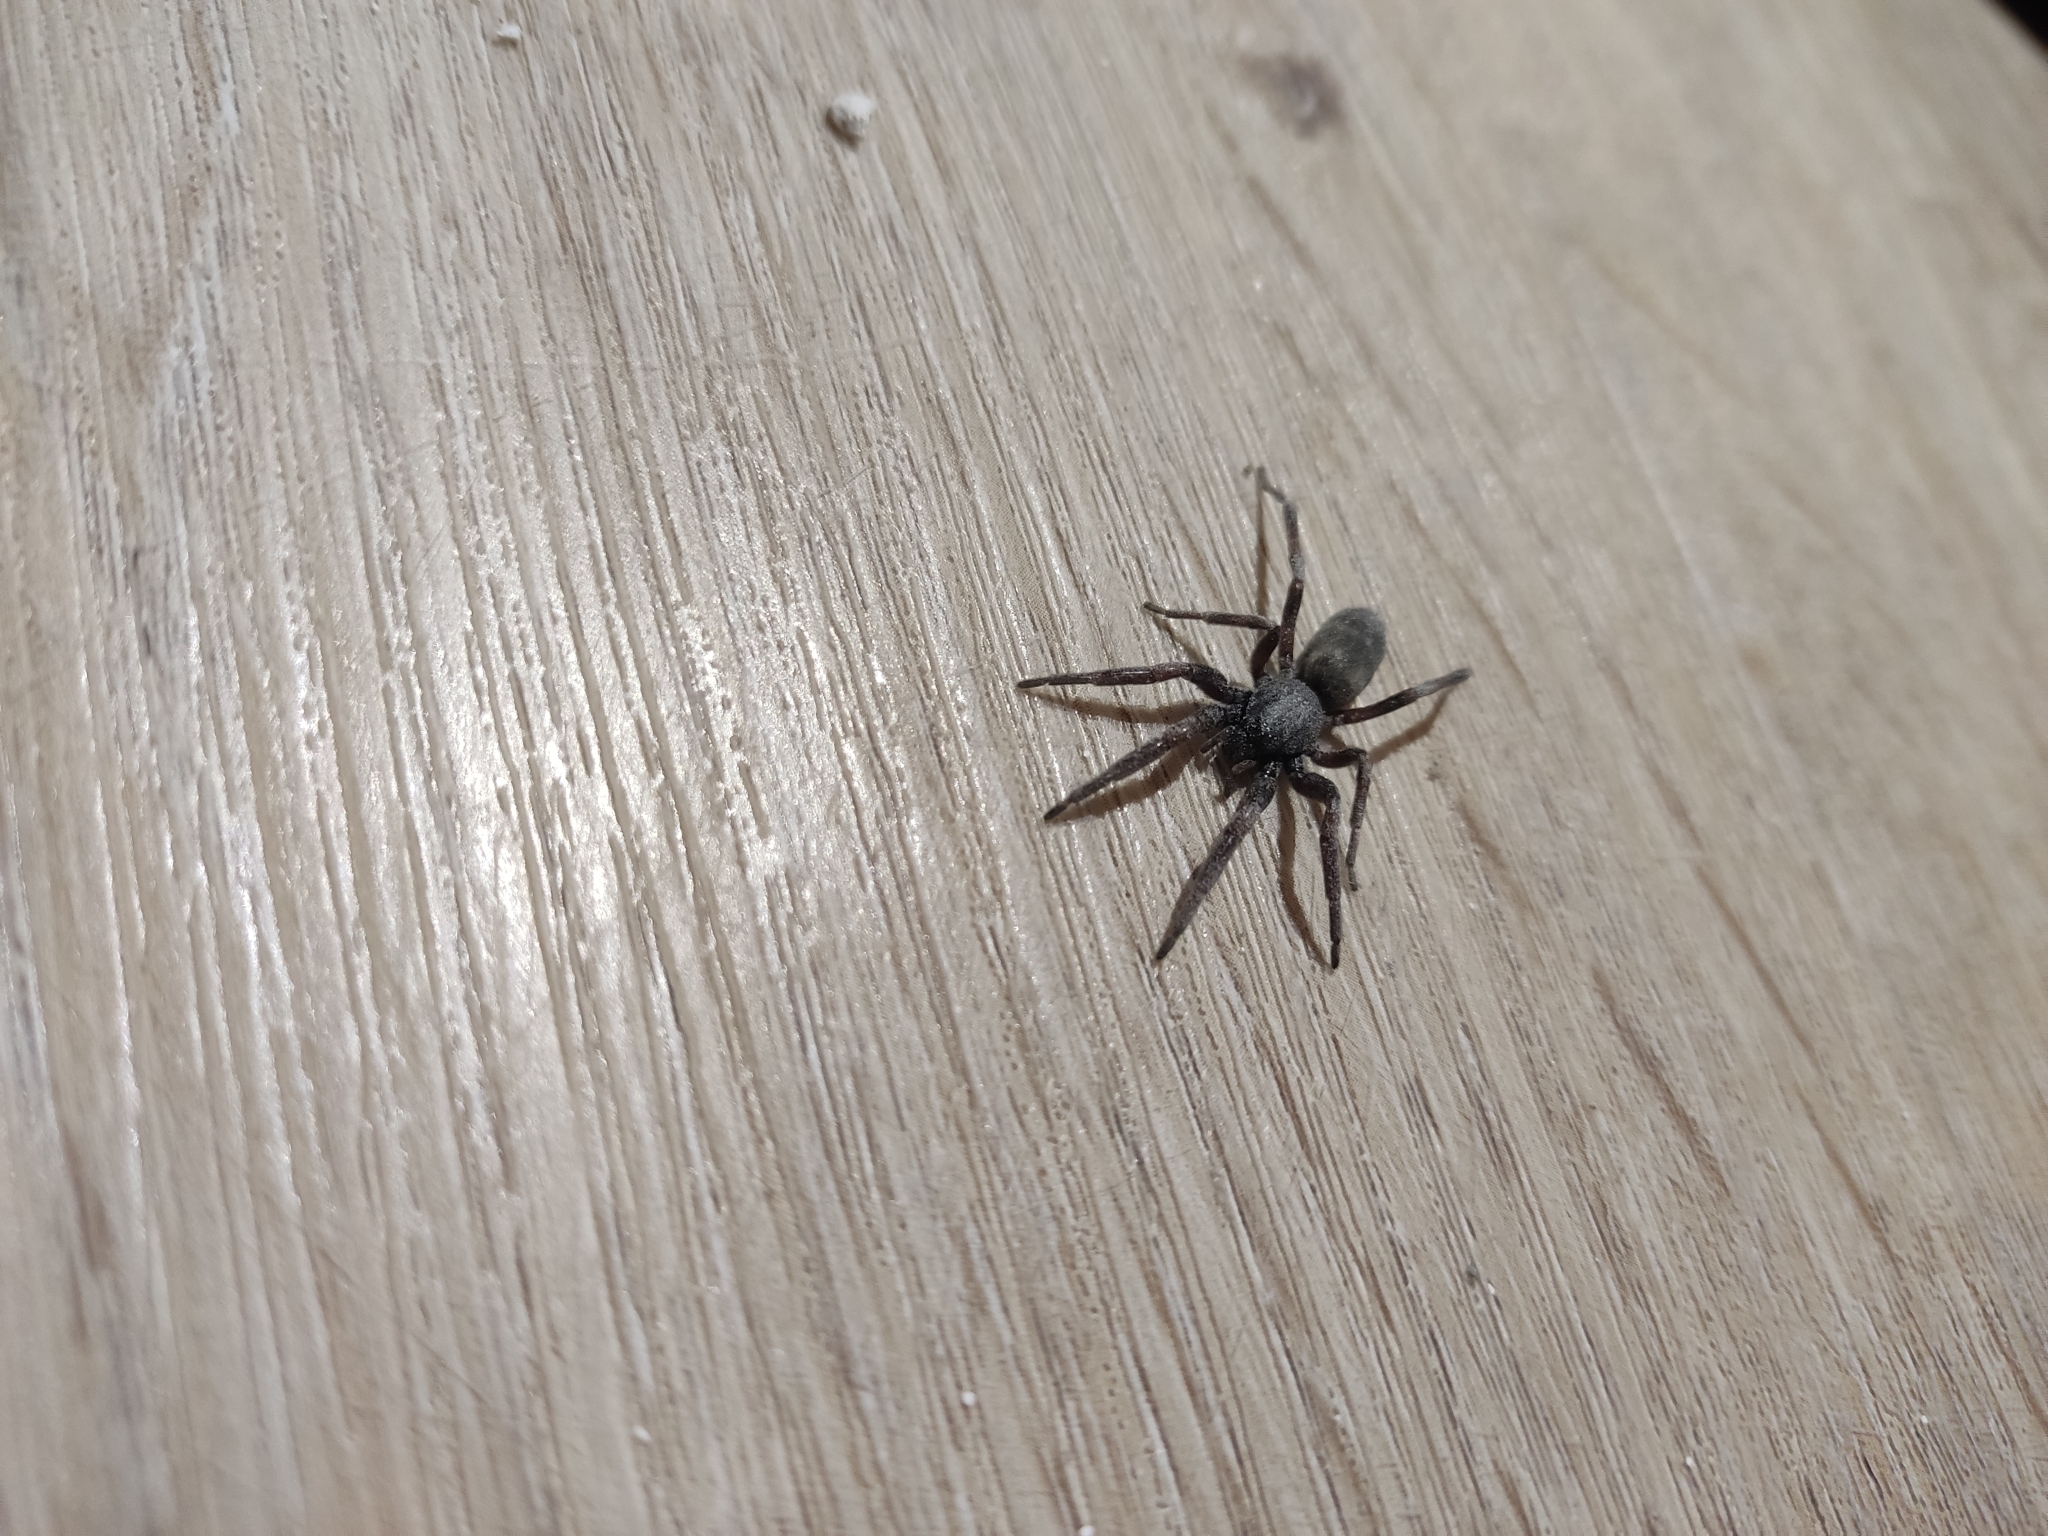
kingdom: Animalia
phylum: Arthropoda
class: Arachnida
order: Araneae
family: Lamponidae
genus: Lampona
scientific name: Lampona cylindrata
